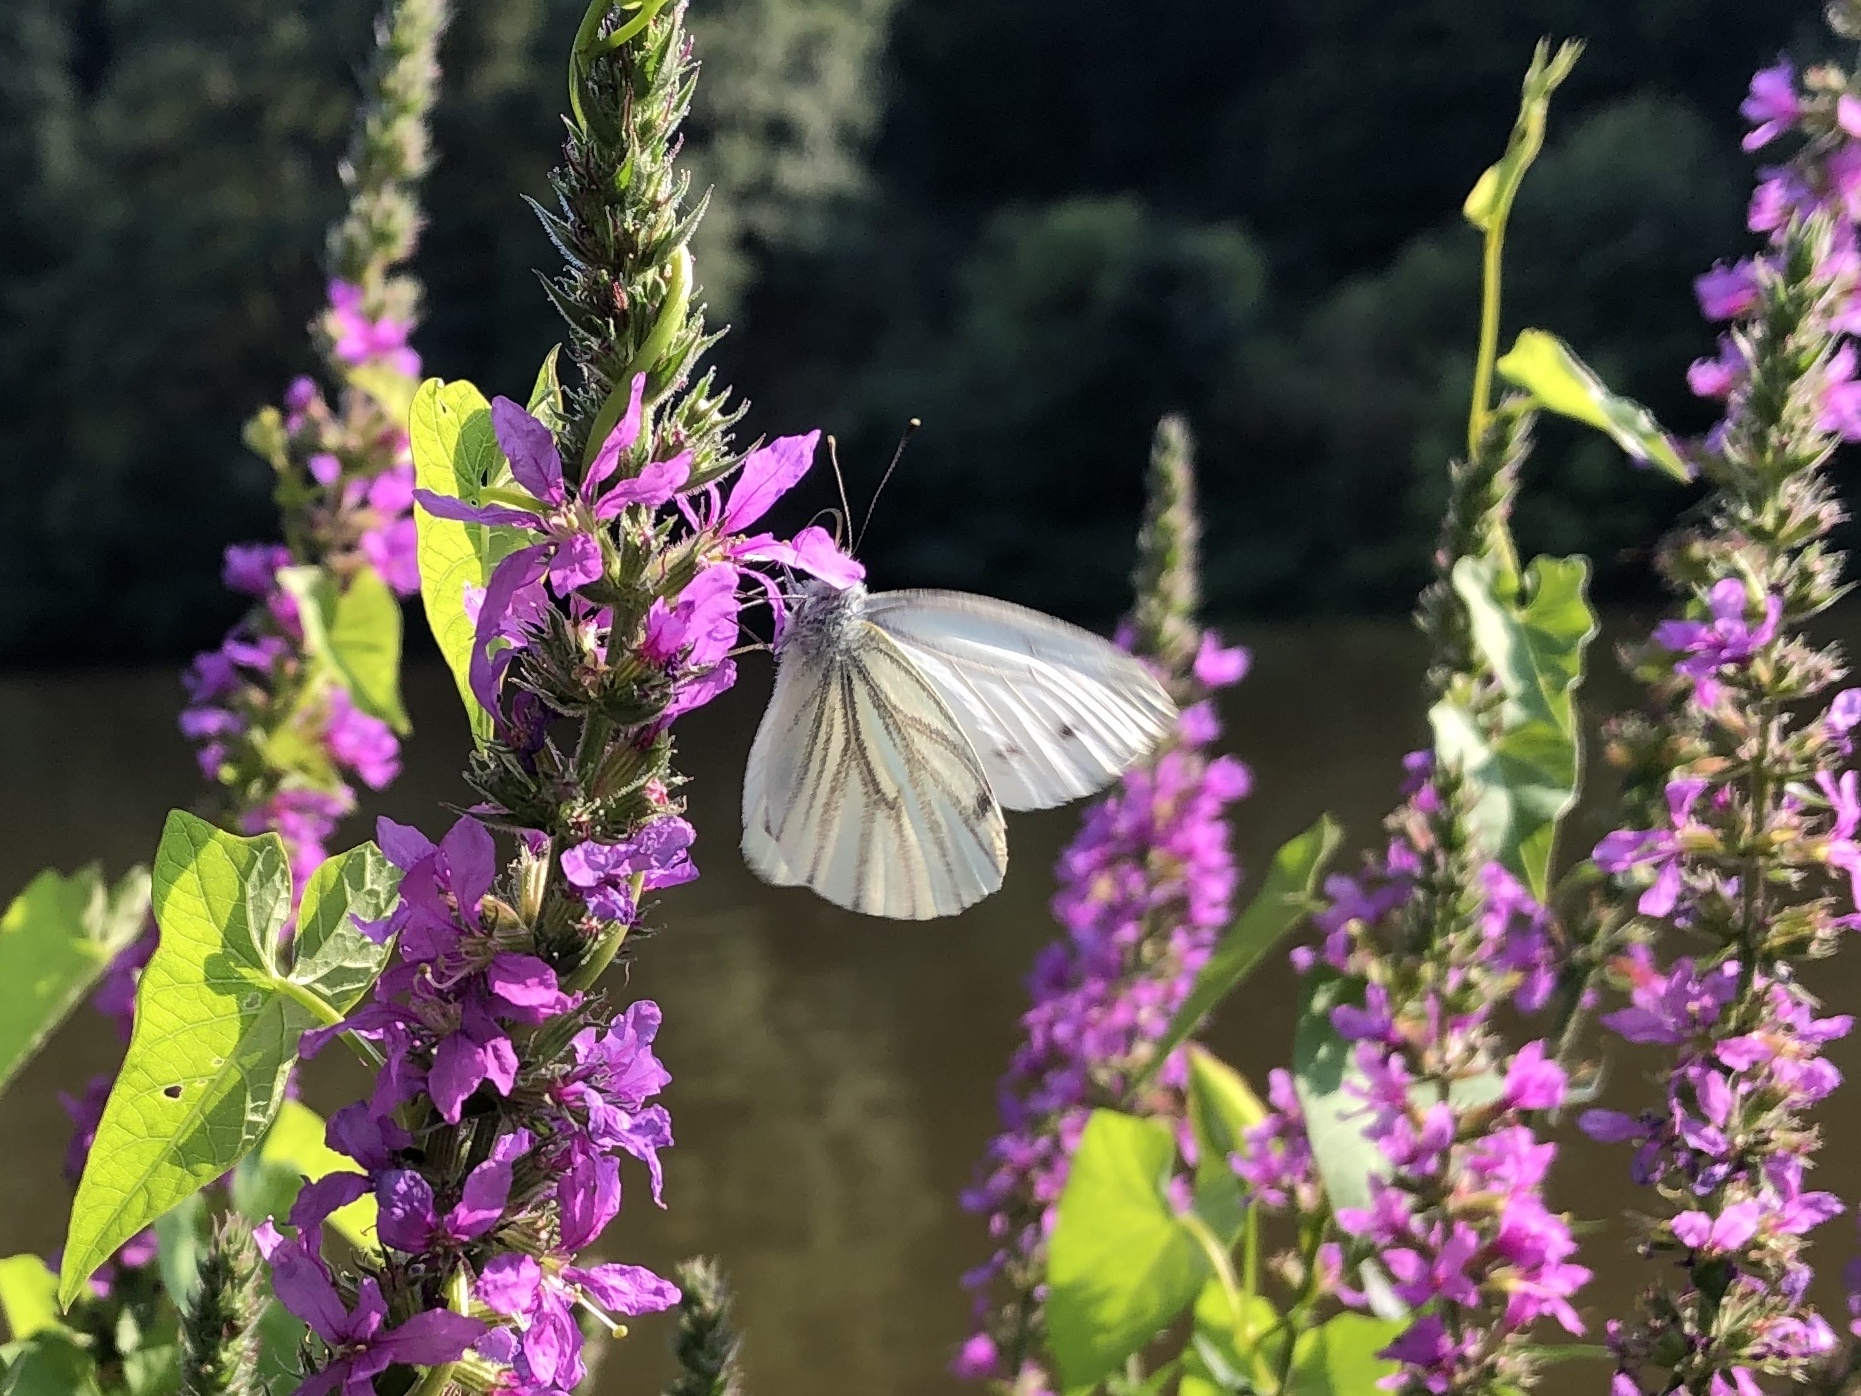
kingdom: Animalia
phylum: Arthropoda
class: Insecta
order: Lepidoptera
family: Pieridae
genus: Pieris
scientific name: Pieris napi
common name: Green-veined white
